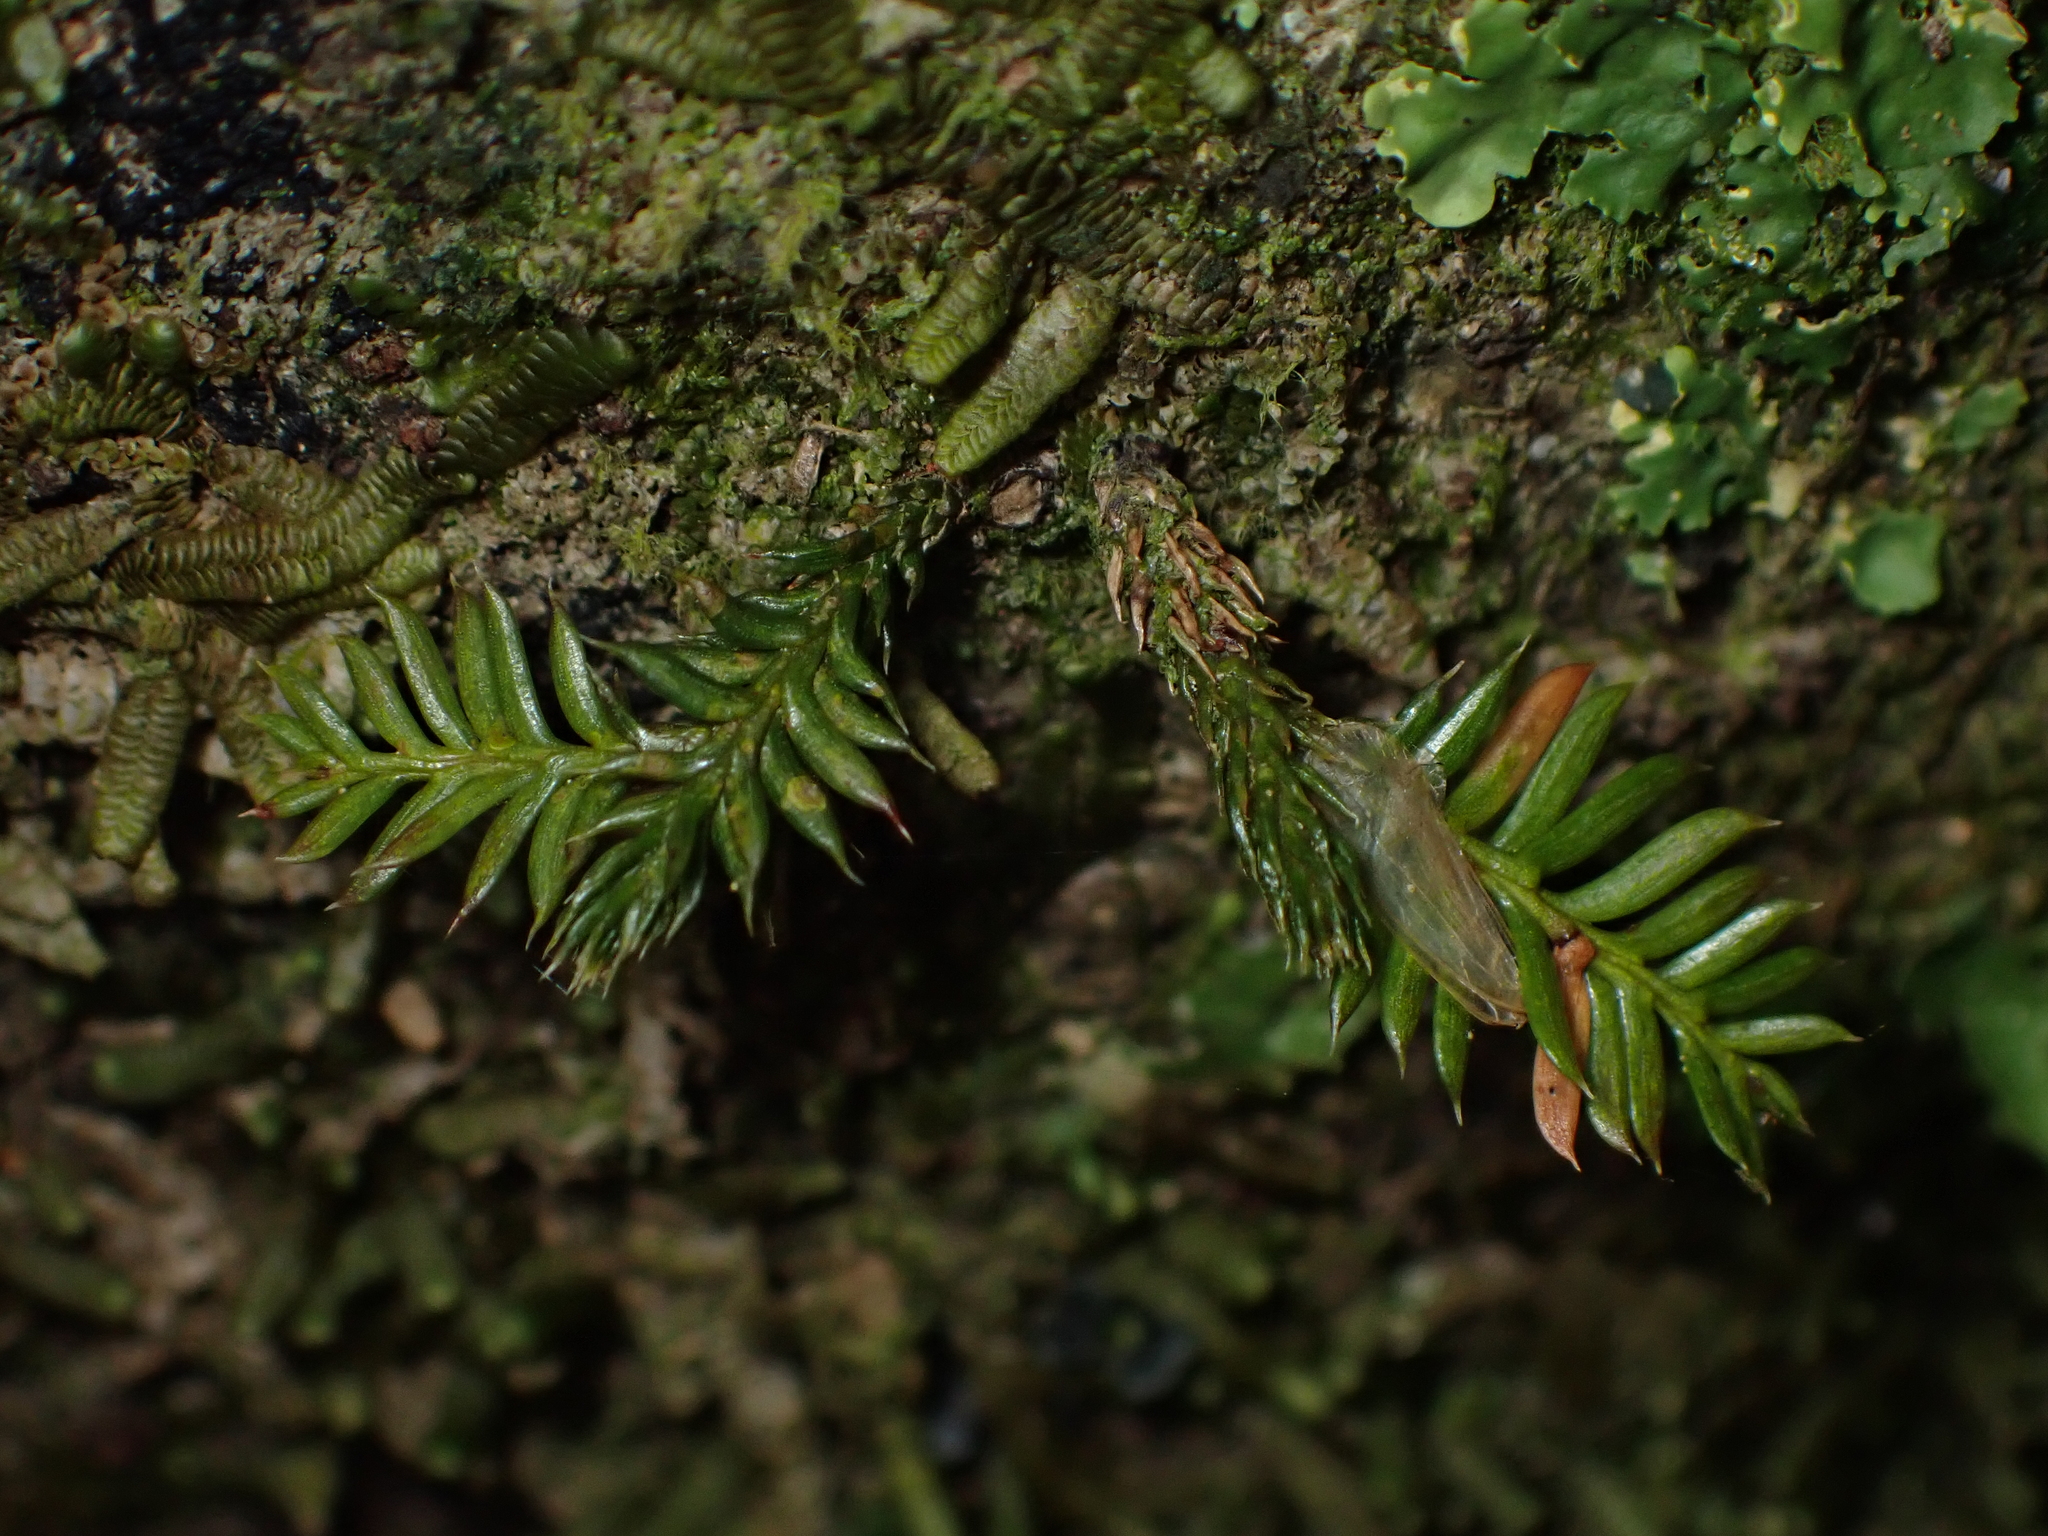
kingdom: Plantae
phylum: Tracheophyta
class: Pinopsida
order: Pinales
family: Podocarpaceae
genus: Dacrycarpus
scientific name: Dacrycarpus dacrydioides
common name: White pine
